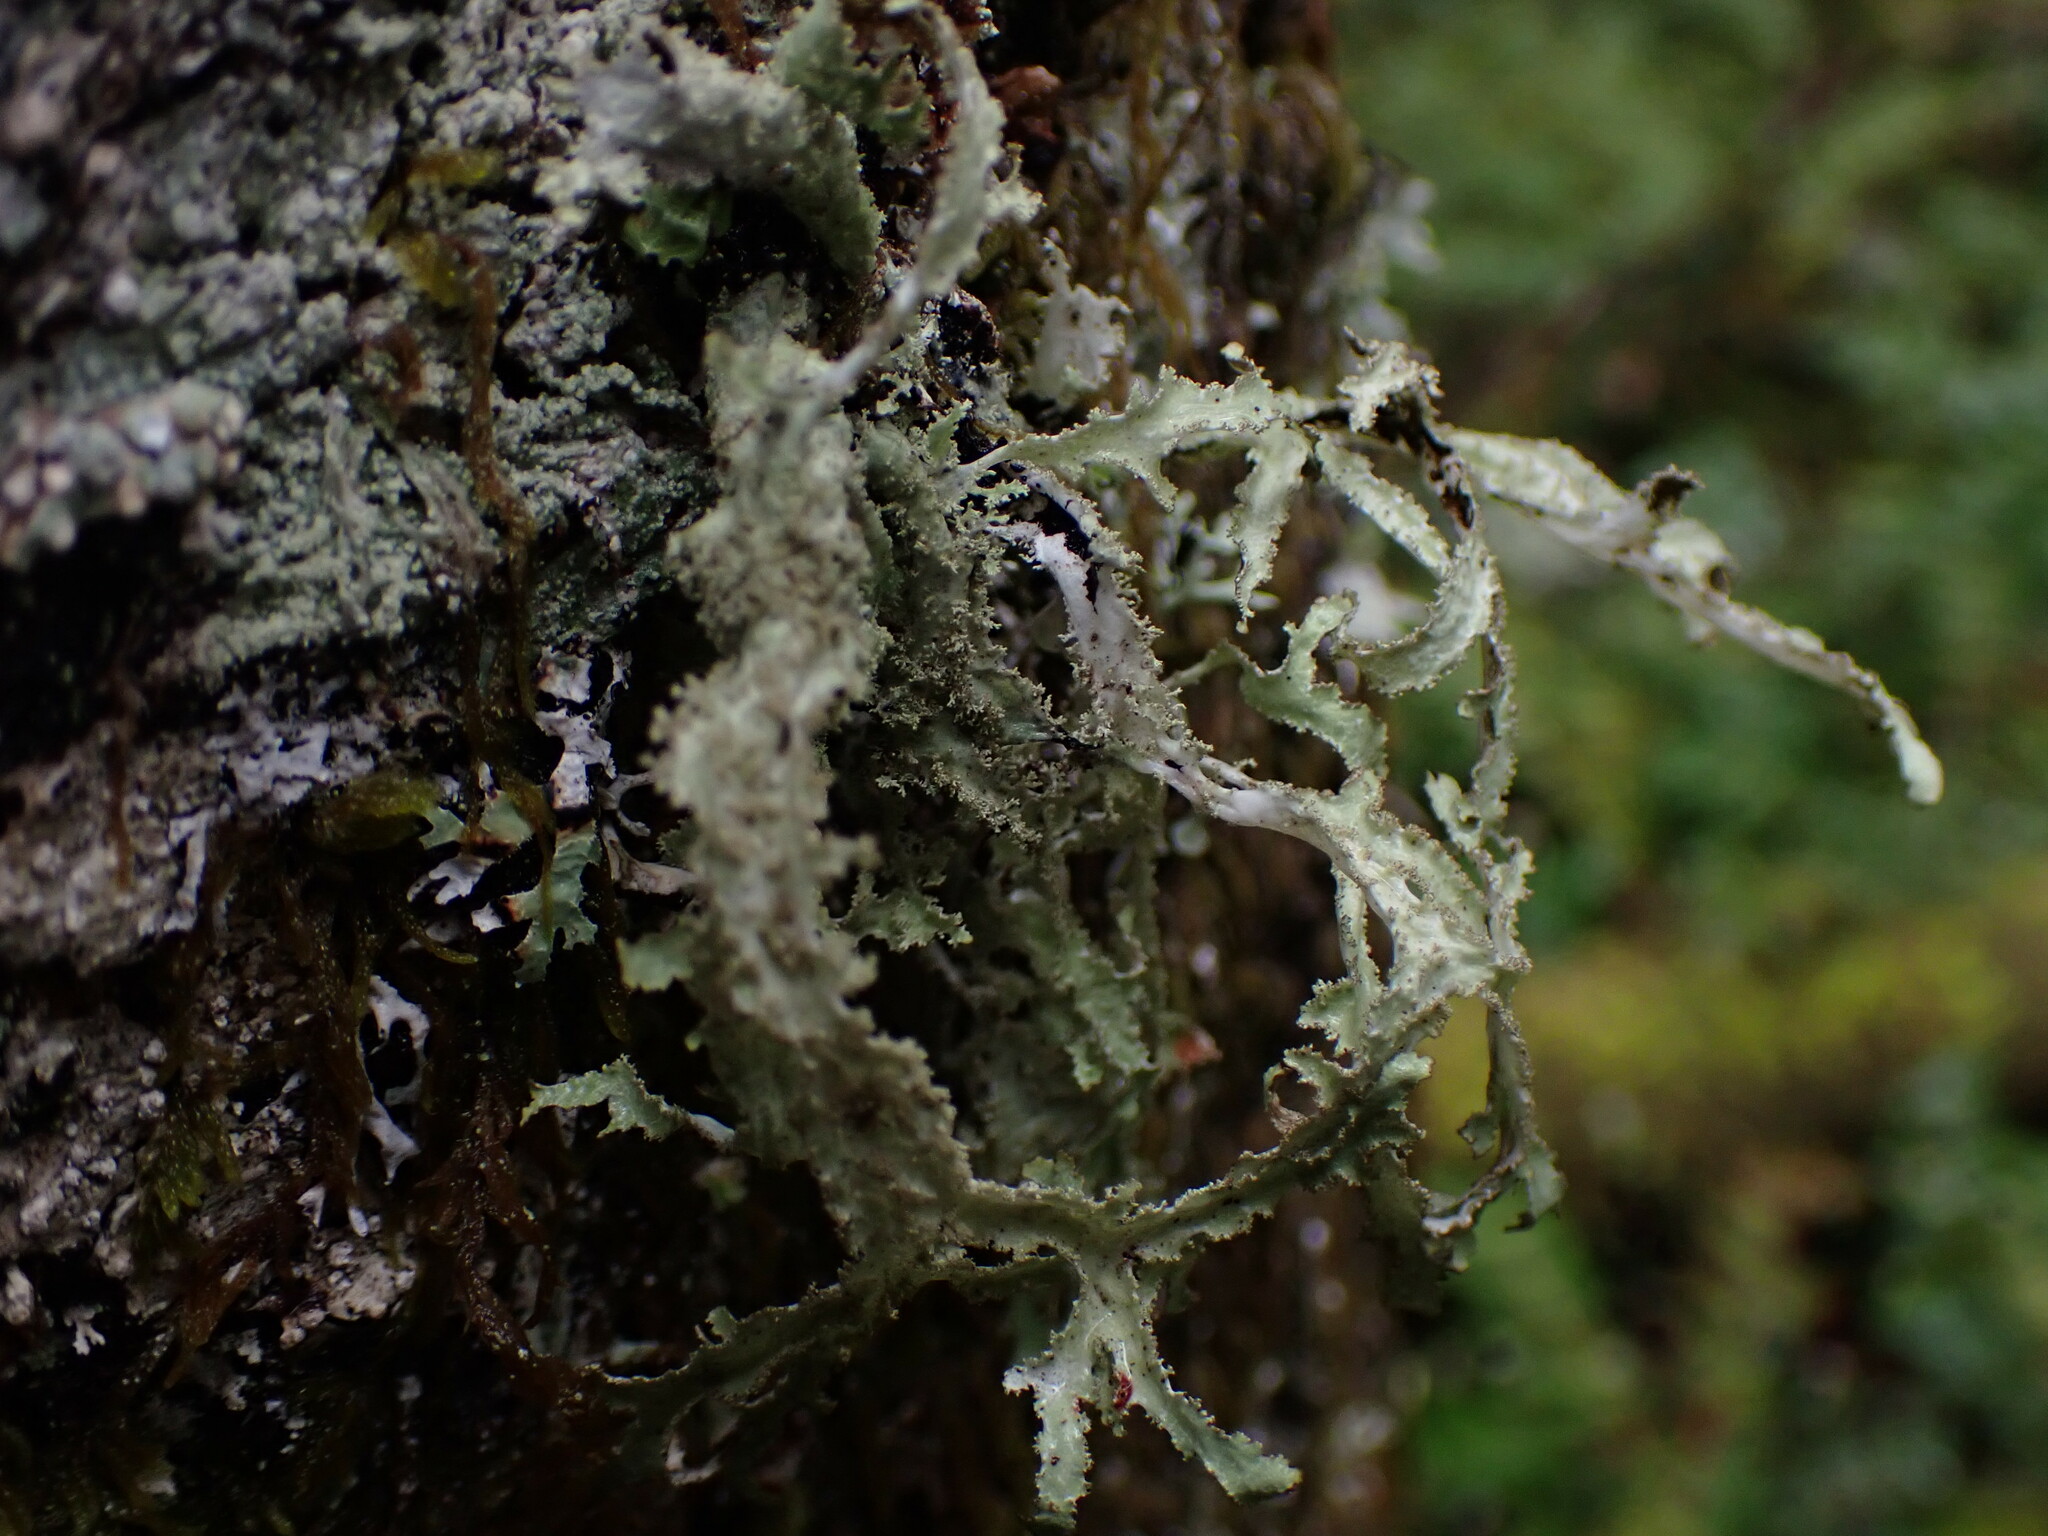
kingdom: Fungi
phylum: Ascomycota
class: Lecanoromycetes
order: Lecanorales
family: Parmeliaceae
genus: Platismatia
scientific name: Platismatia herrei
